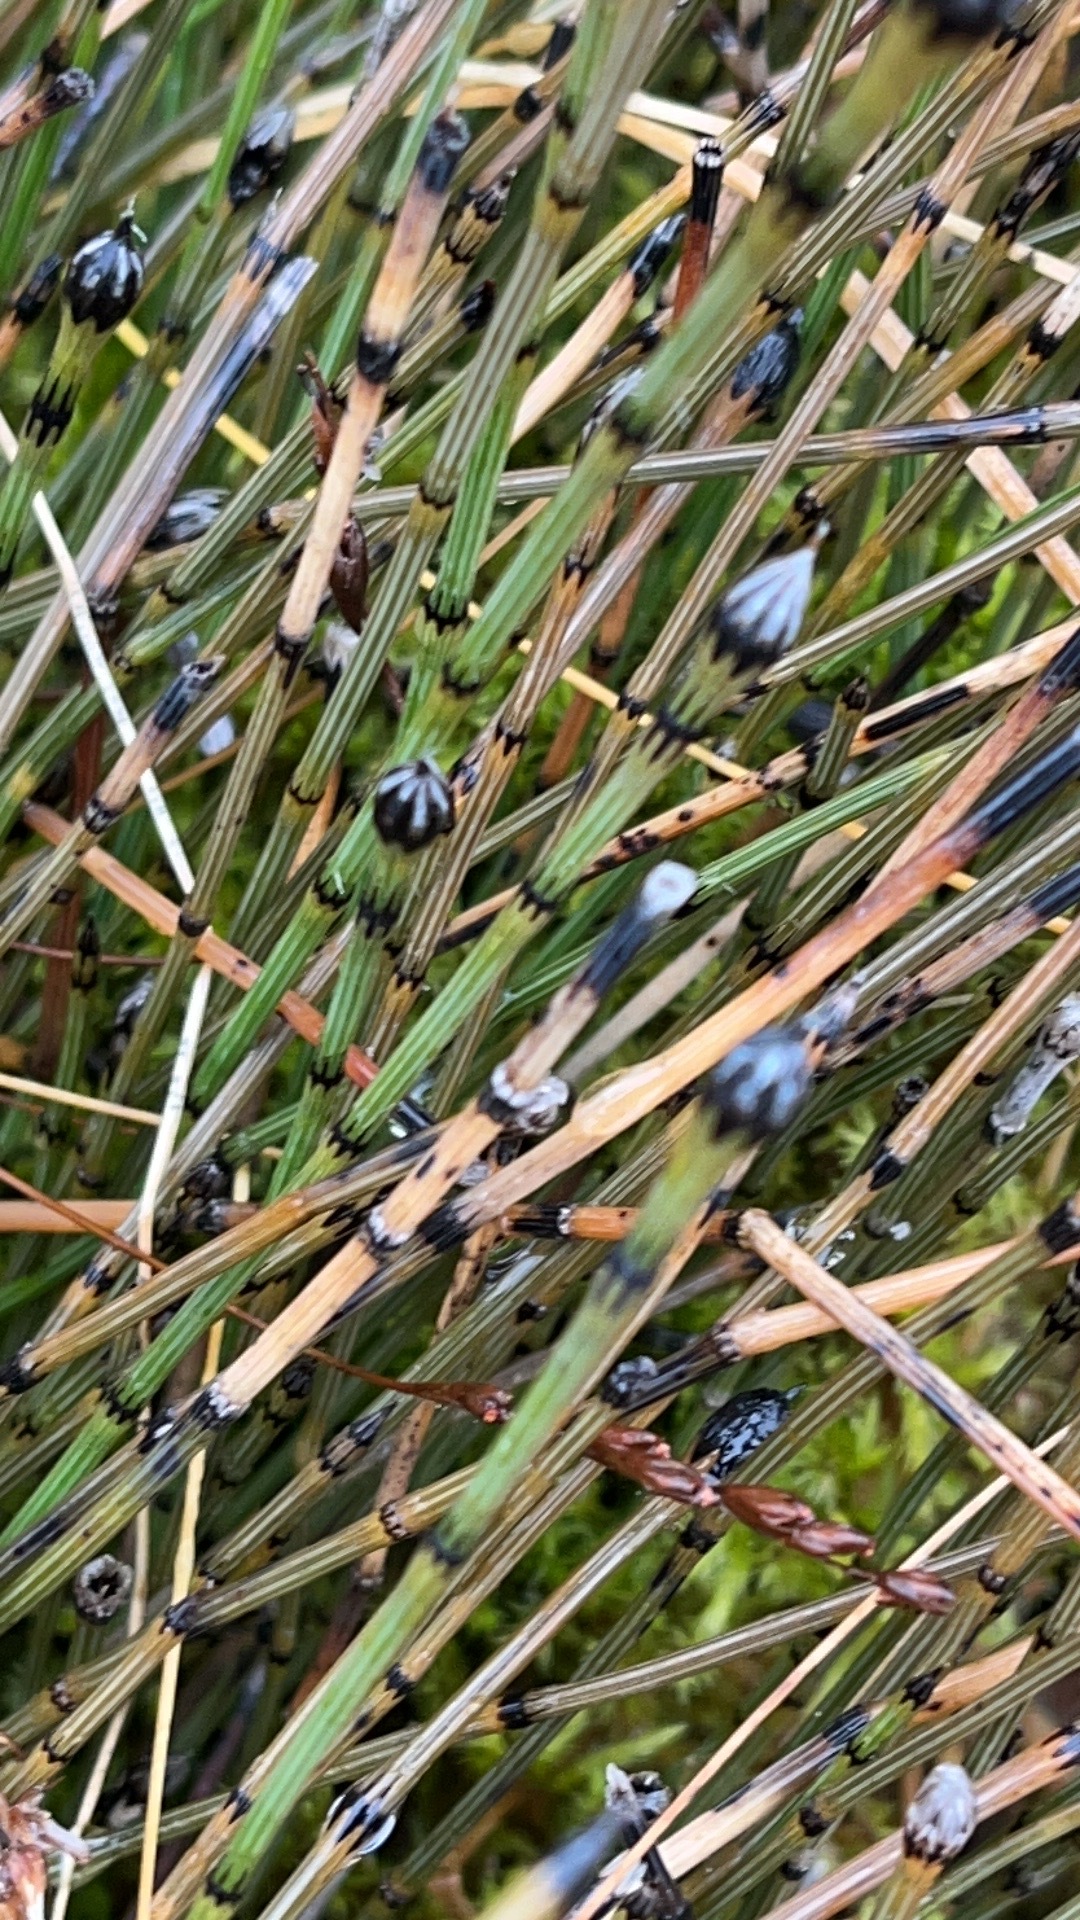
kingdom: Plantae
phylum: Tracheophyta
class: Polypodiopsida
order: Equisetales
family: Equisetaceae
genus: Equisetum
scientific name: Equisetum variegatum
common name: Variegated horsetail
